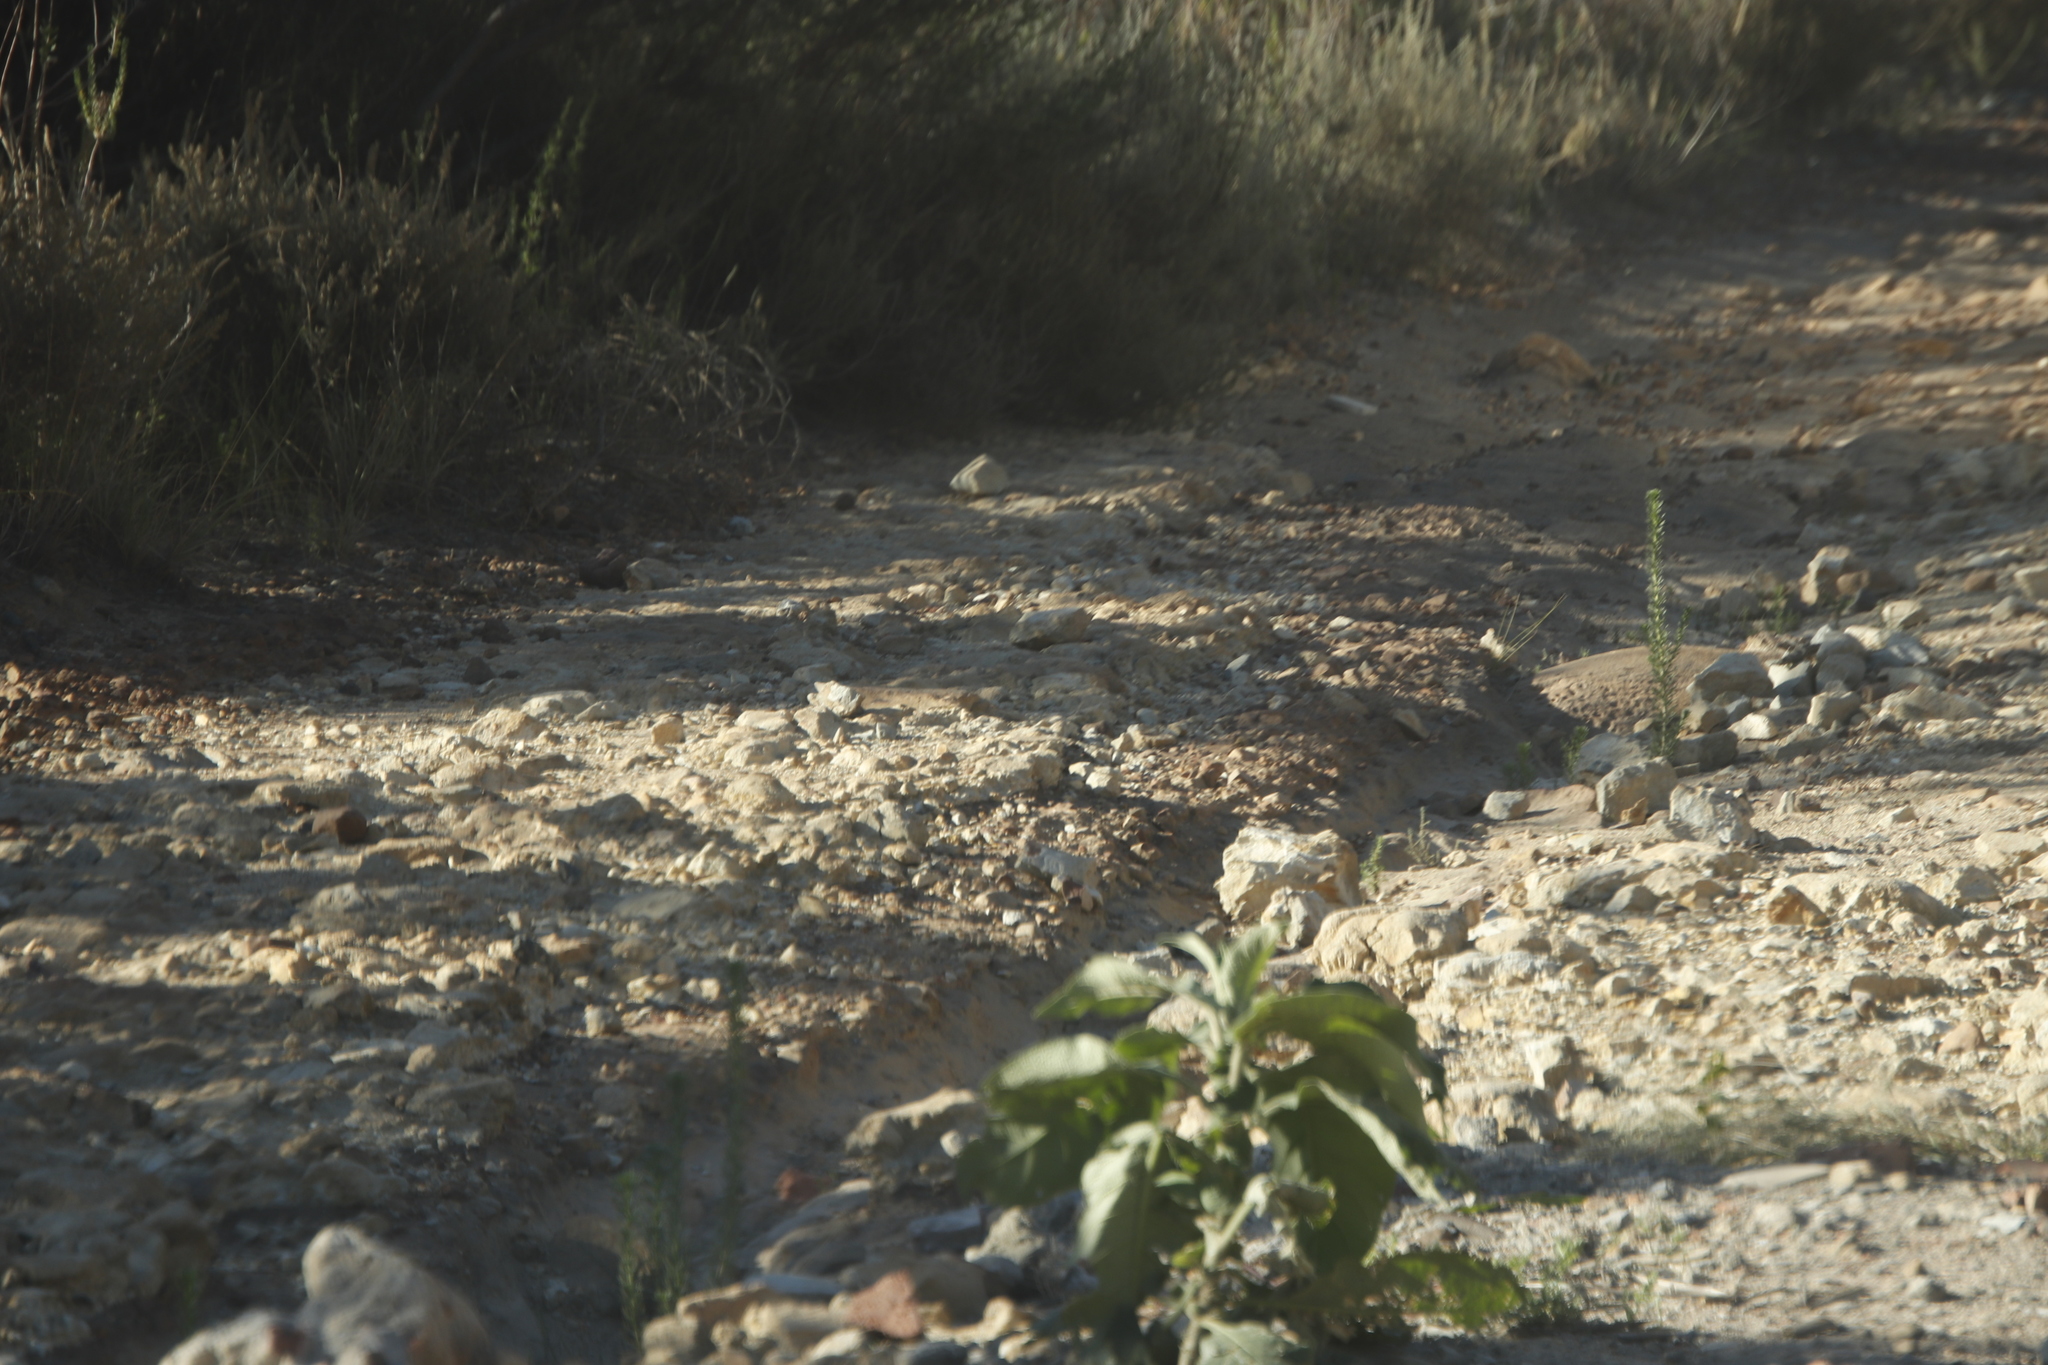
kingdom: Plantae
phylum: Tracheophyta
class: Magnoliopsida
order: Solanales
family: Solanaceae
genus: Solanum
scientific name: Solanum mauritianum
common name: Earleaf nightshade
